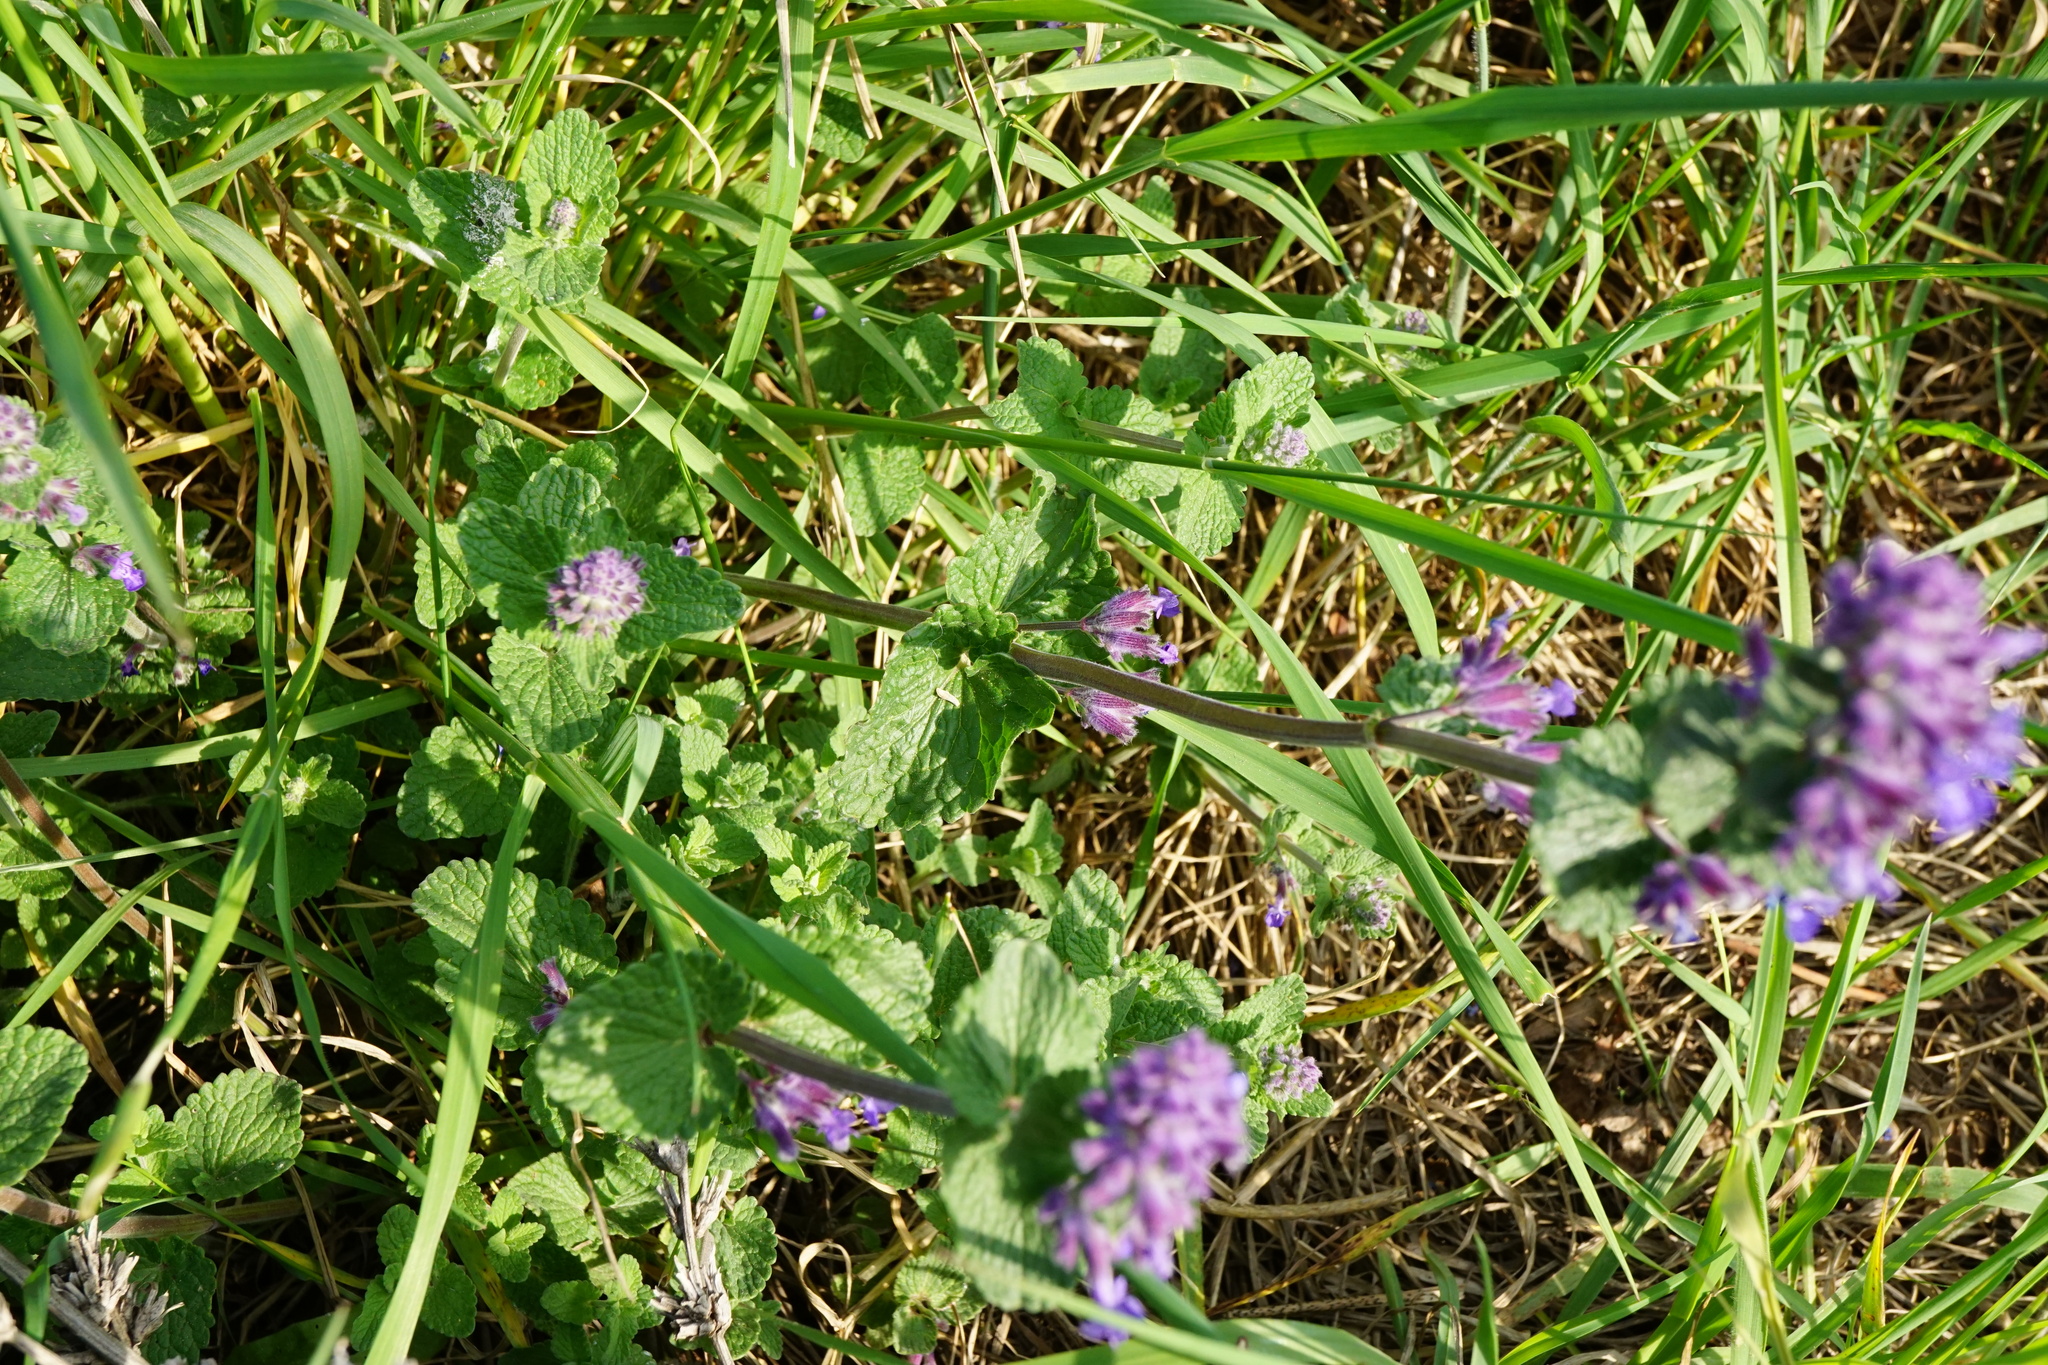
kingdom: Plantae
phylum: Tracheophyta
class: Magnoliopsida
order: Lamiales
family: Lamiaceae
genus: Nepeta
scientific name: Nepeta racemosa
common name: Raceme catnip
